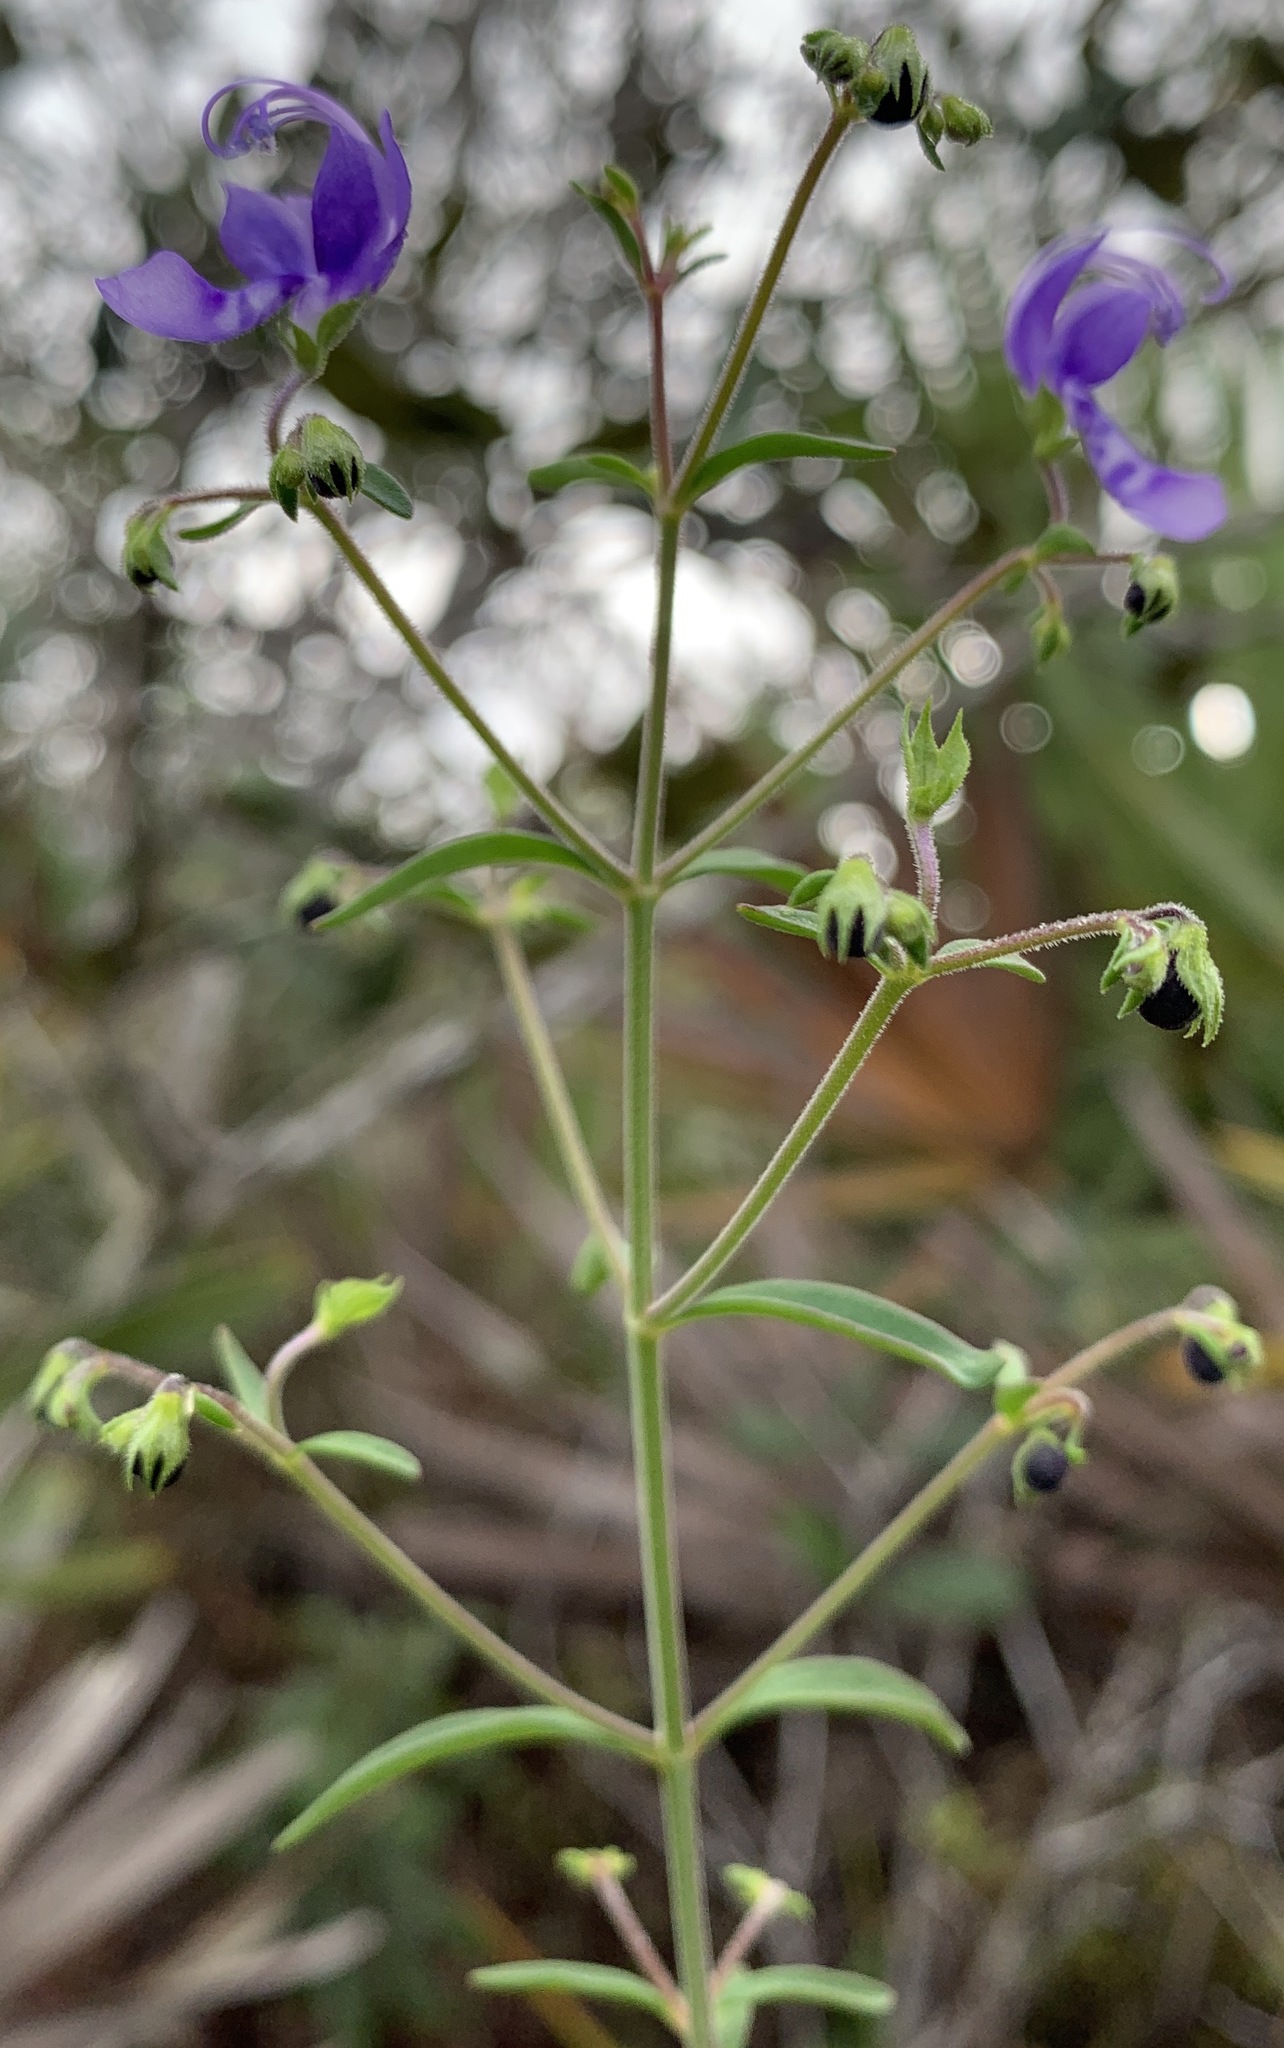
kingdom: Plantae
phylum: Tracheophyta
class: Magnoliopsida
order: Lamiales
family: Lamiaceae
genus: Trichostema
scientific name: Trichostema gracile
